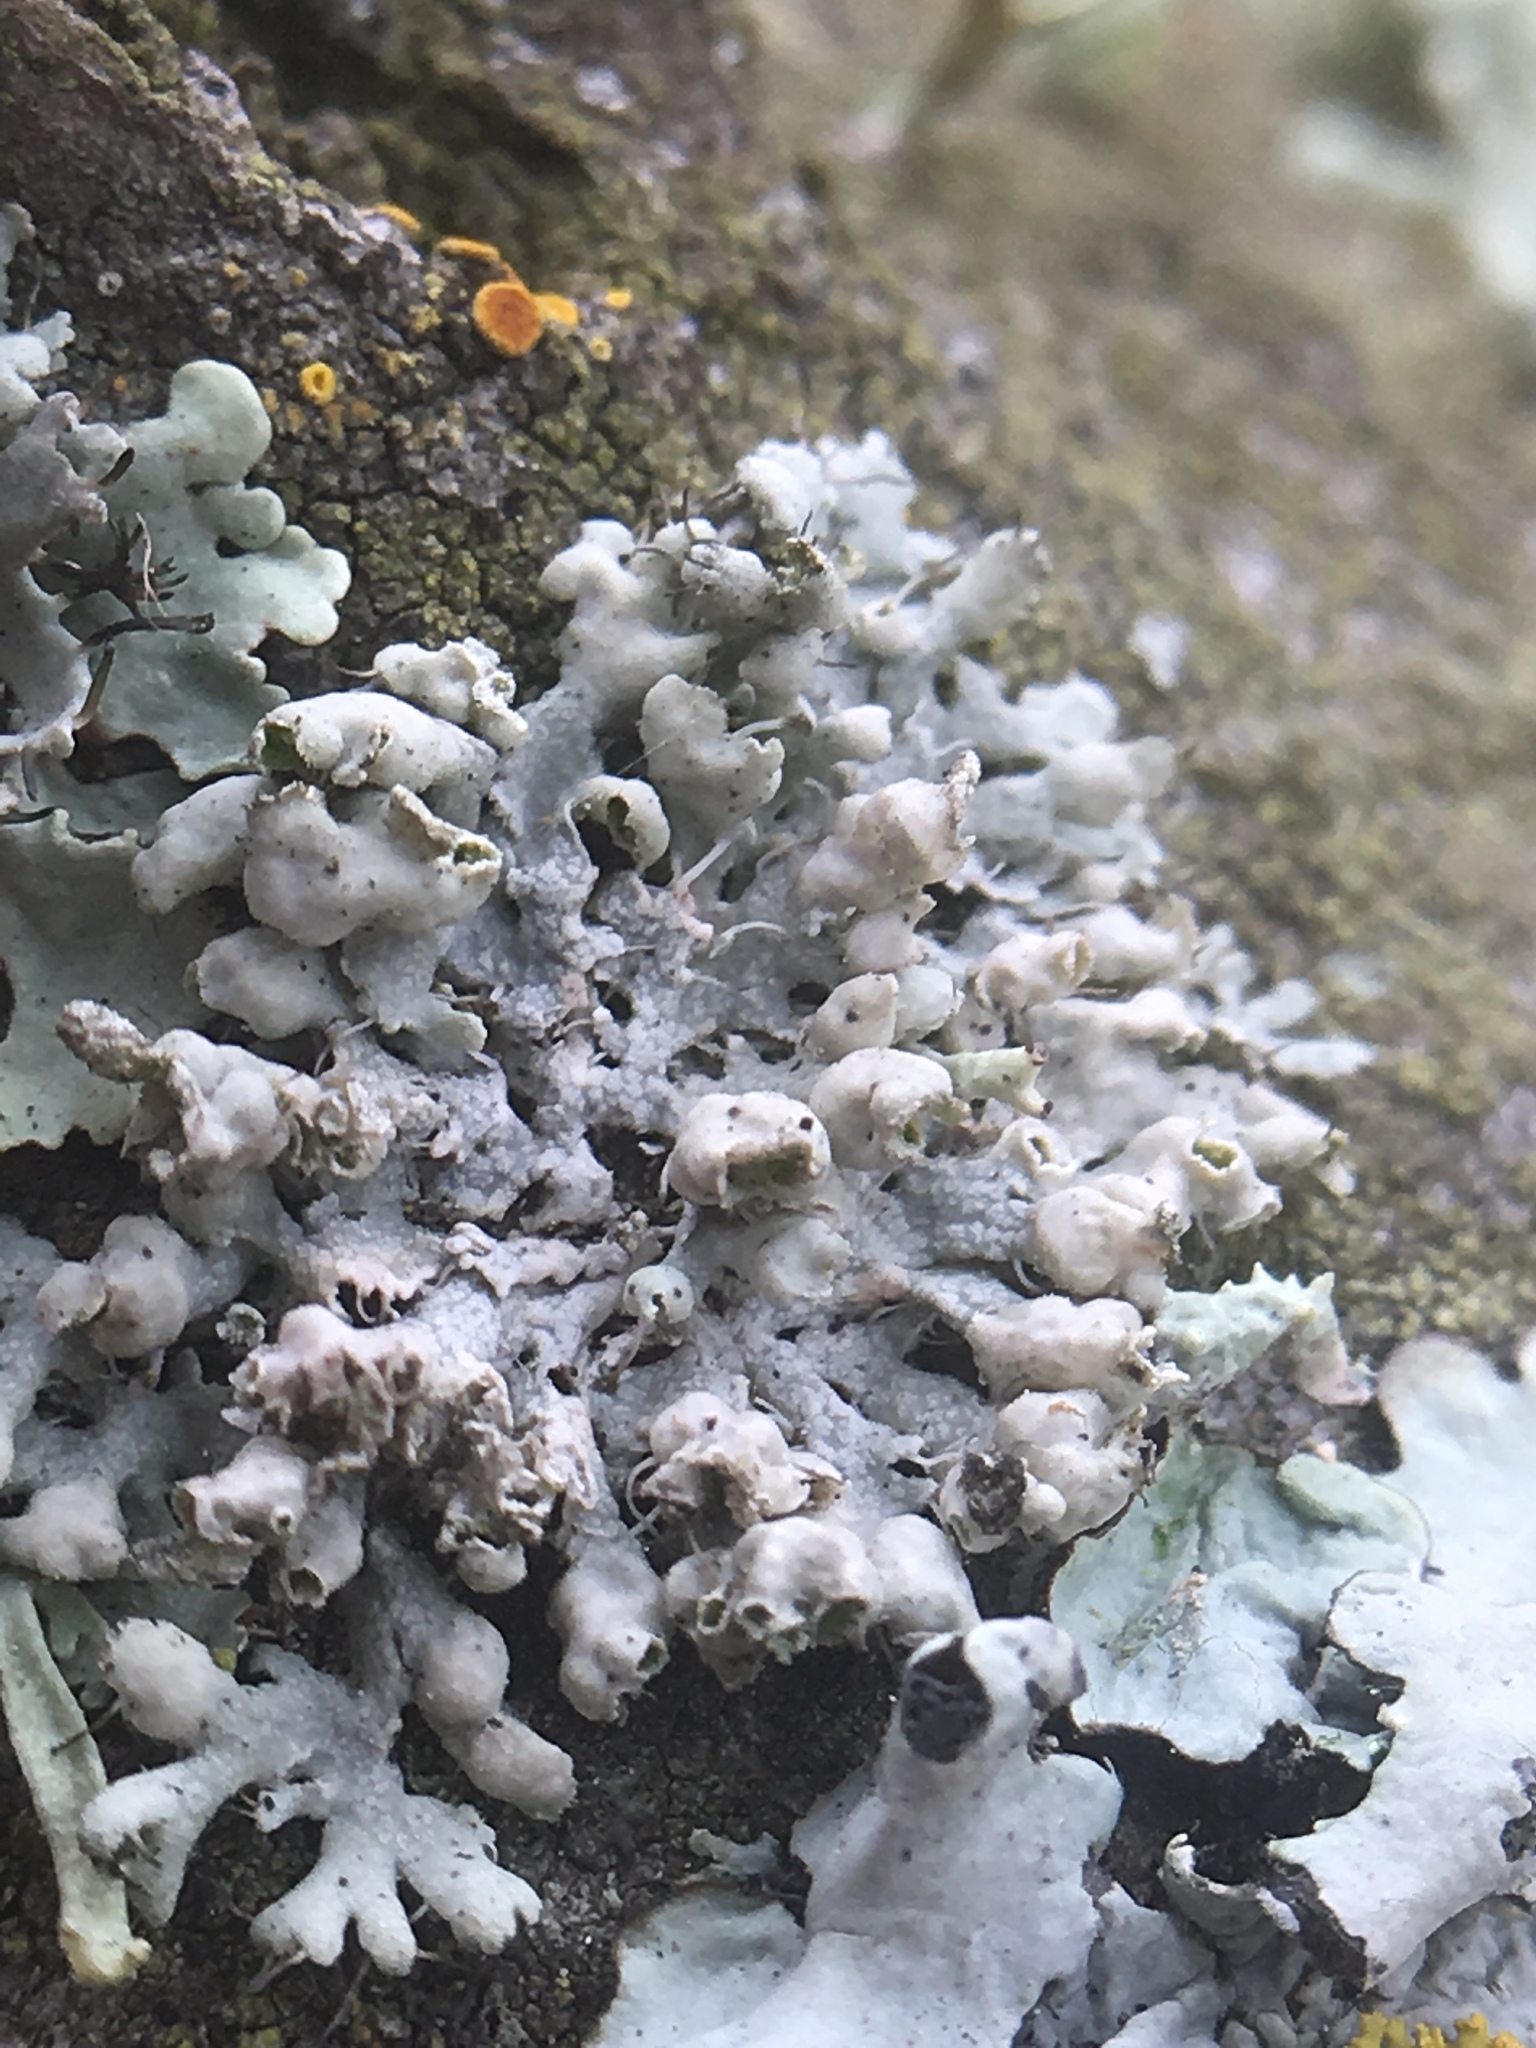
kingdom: Fungi
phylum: Ascomycota
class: Lecanoromycetes
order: Caliciales
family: Physciaceae
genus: Physcia
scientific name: Physcia adscendens
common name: Hooded rosette lichen
